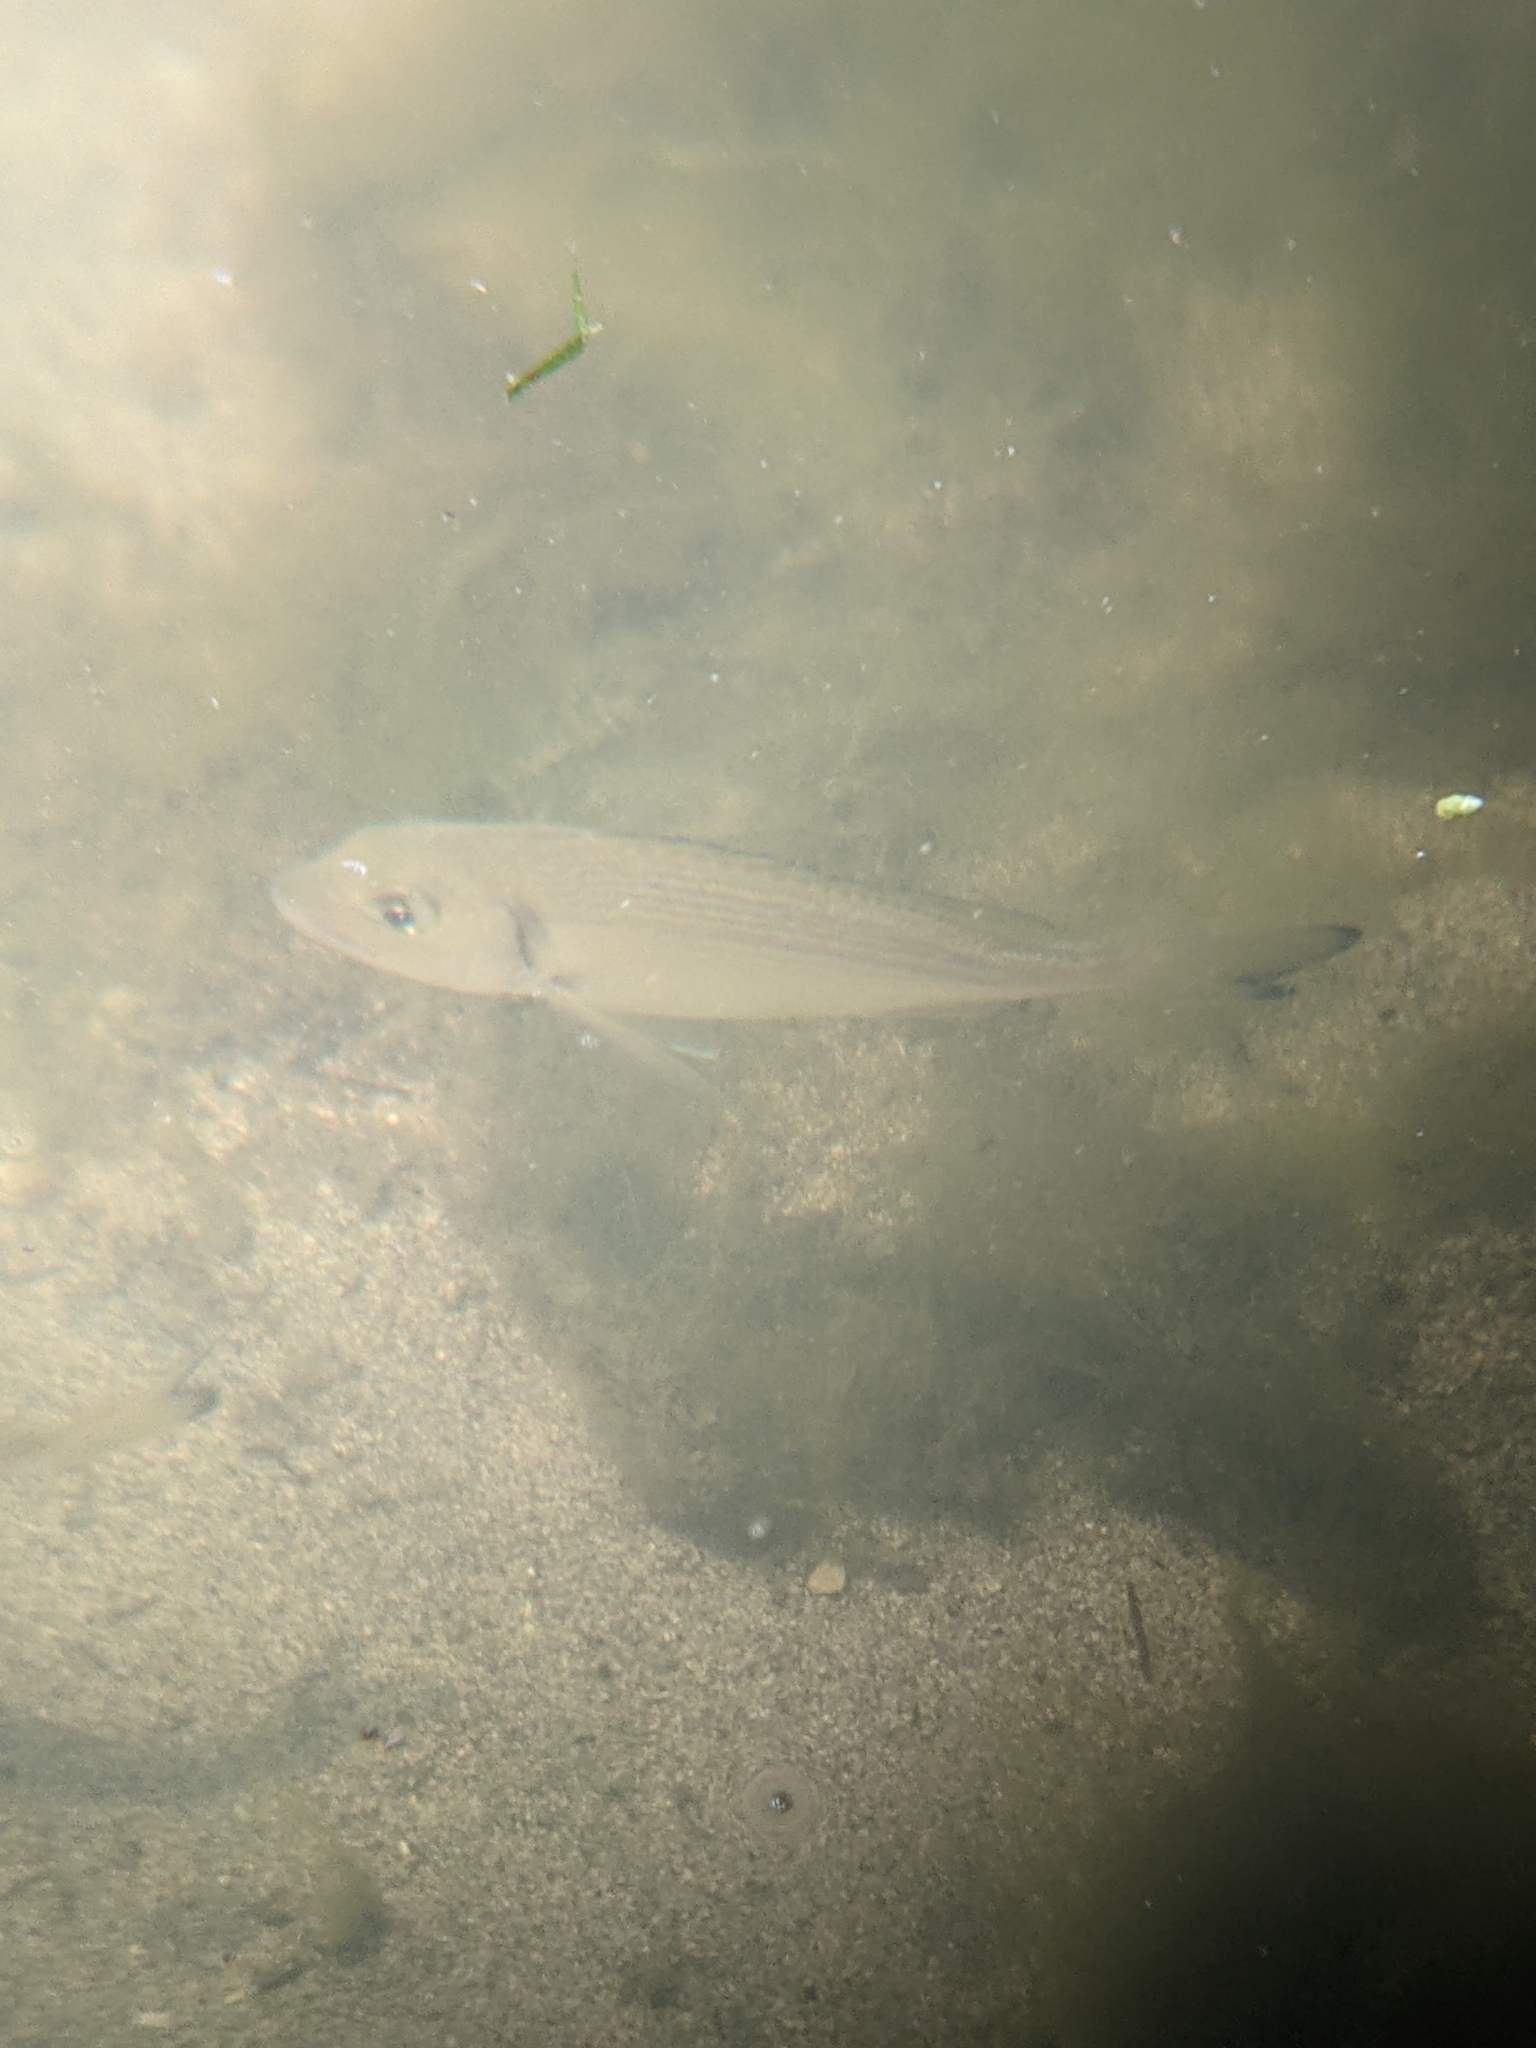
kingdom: Animalia
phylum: Chordata
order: Perciformes
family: Sparidae
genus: Sparus
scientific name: Sparus aurata
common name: Gilthead
